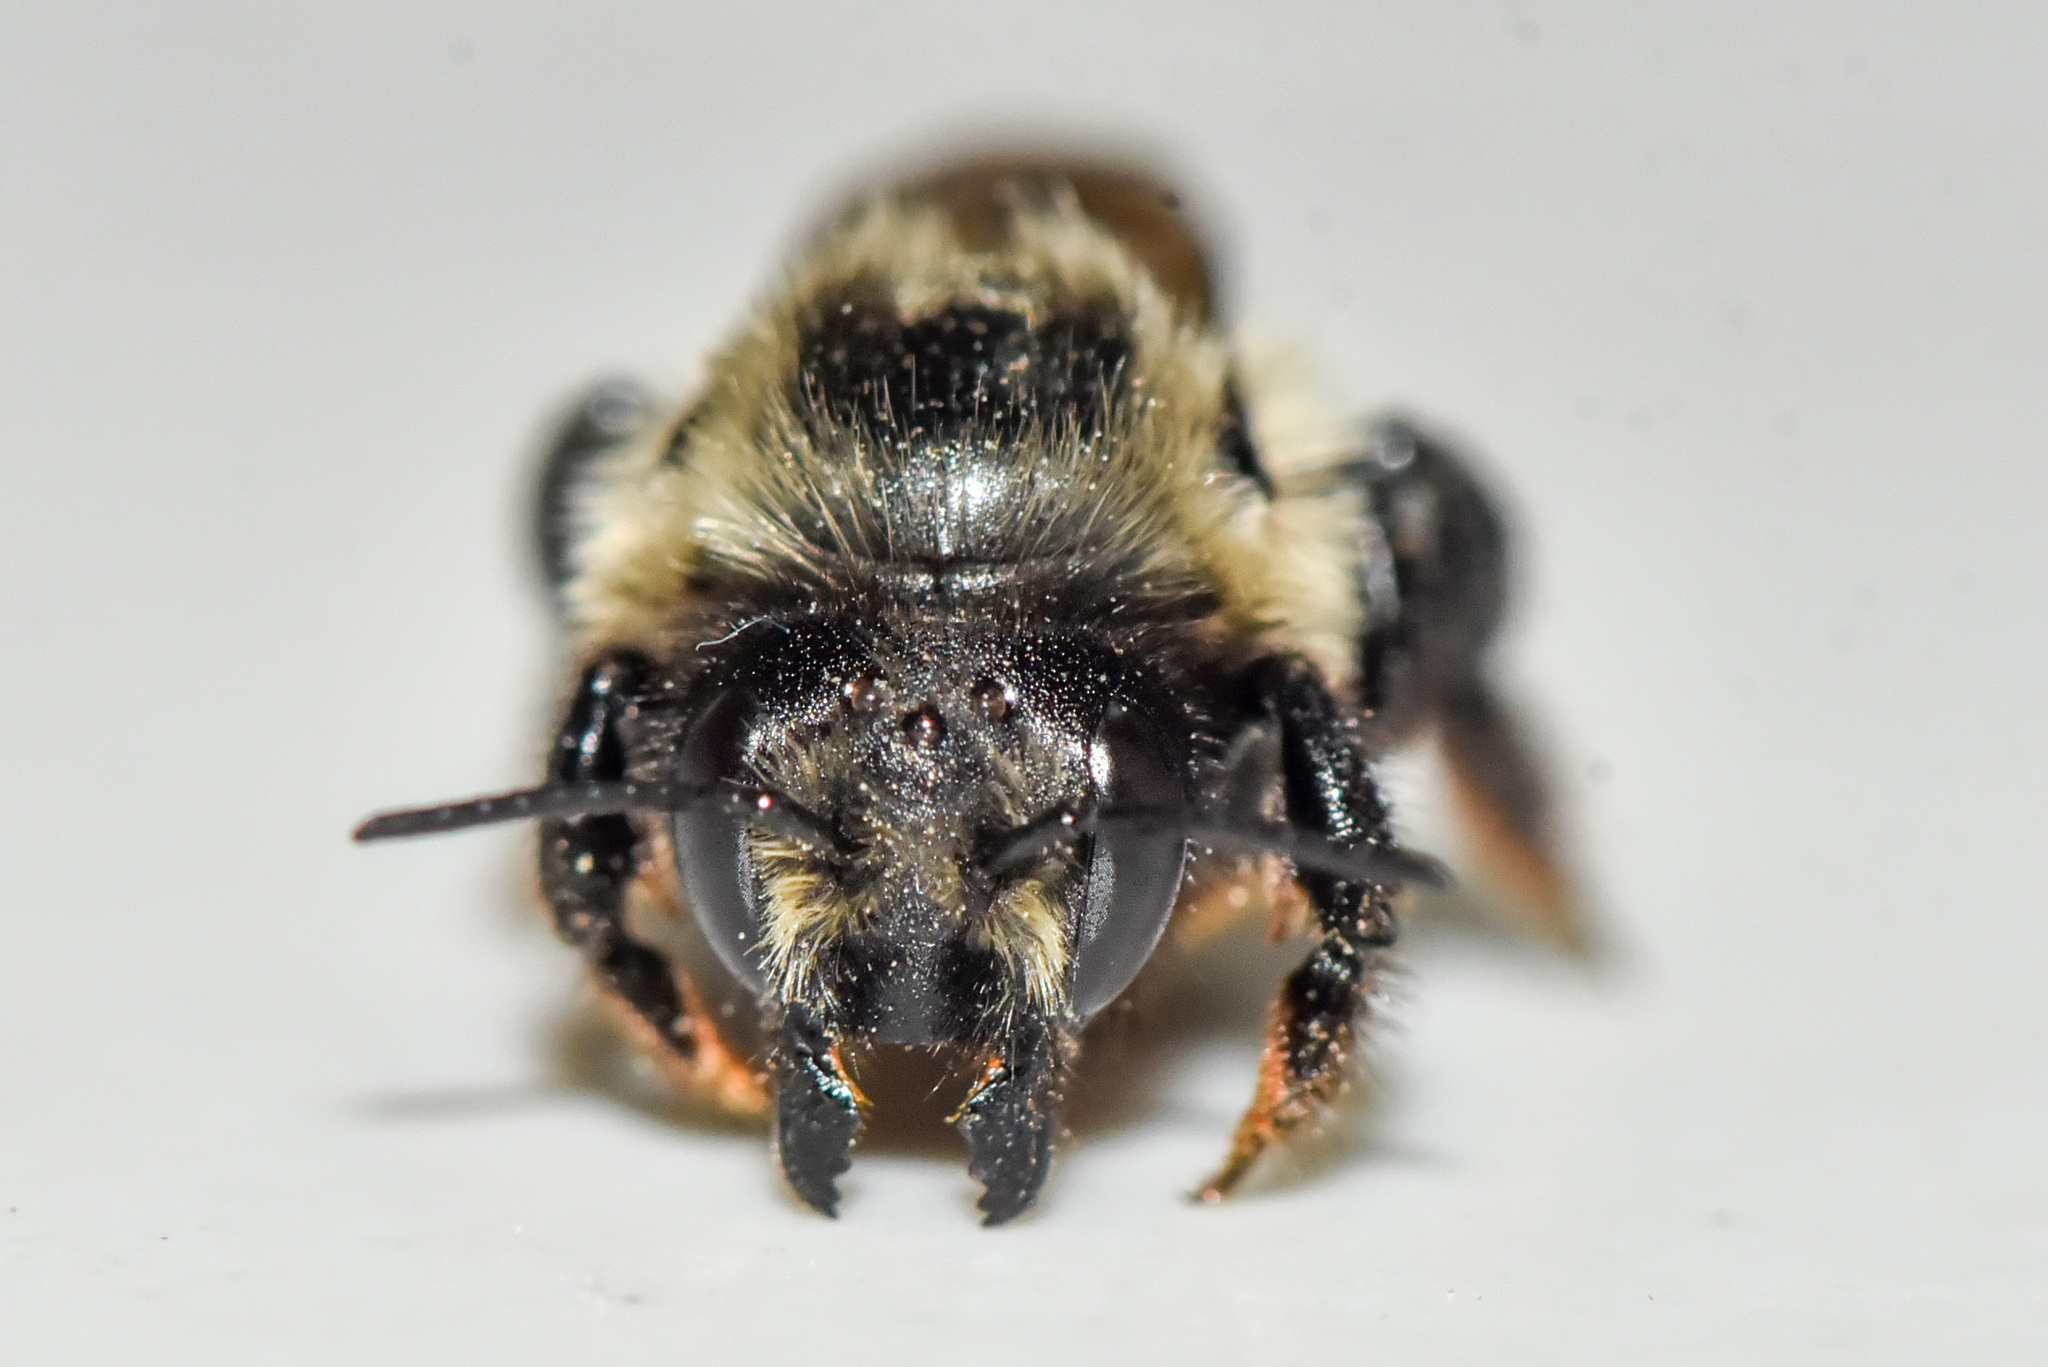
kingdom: Animalia
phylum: Arthropoda
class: Insecta
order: Hymenoptera
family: Megachilidae
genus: Megachile
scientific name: Megachile melanophaea
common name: Black-and-gray leafcutter bee
